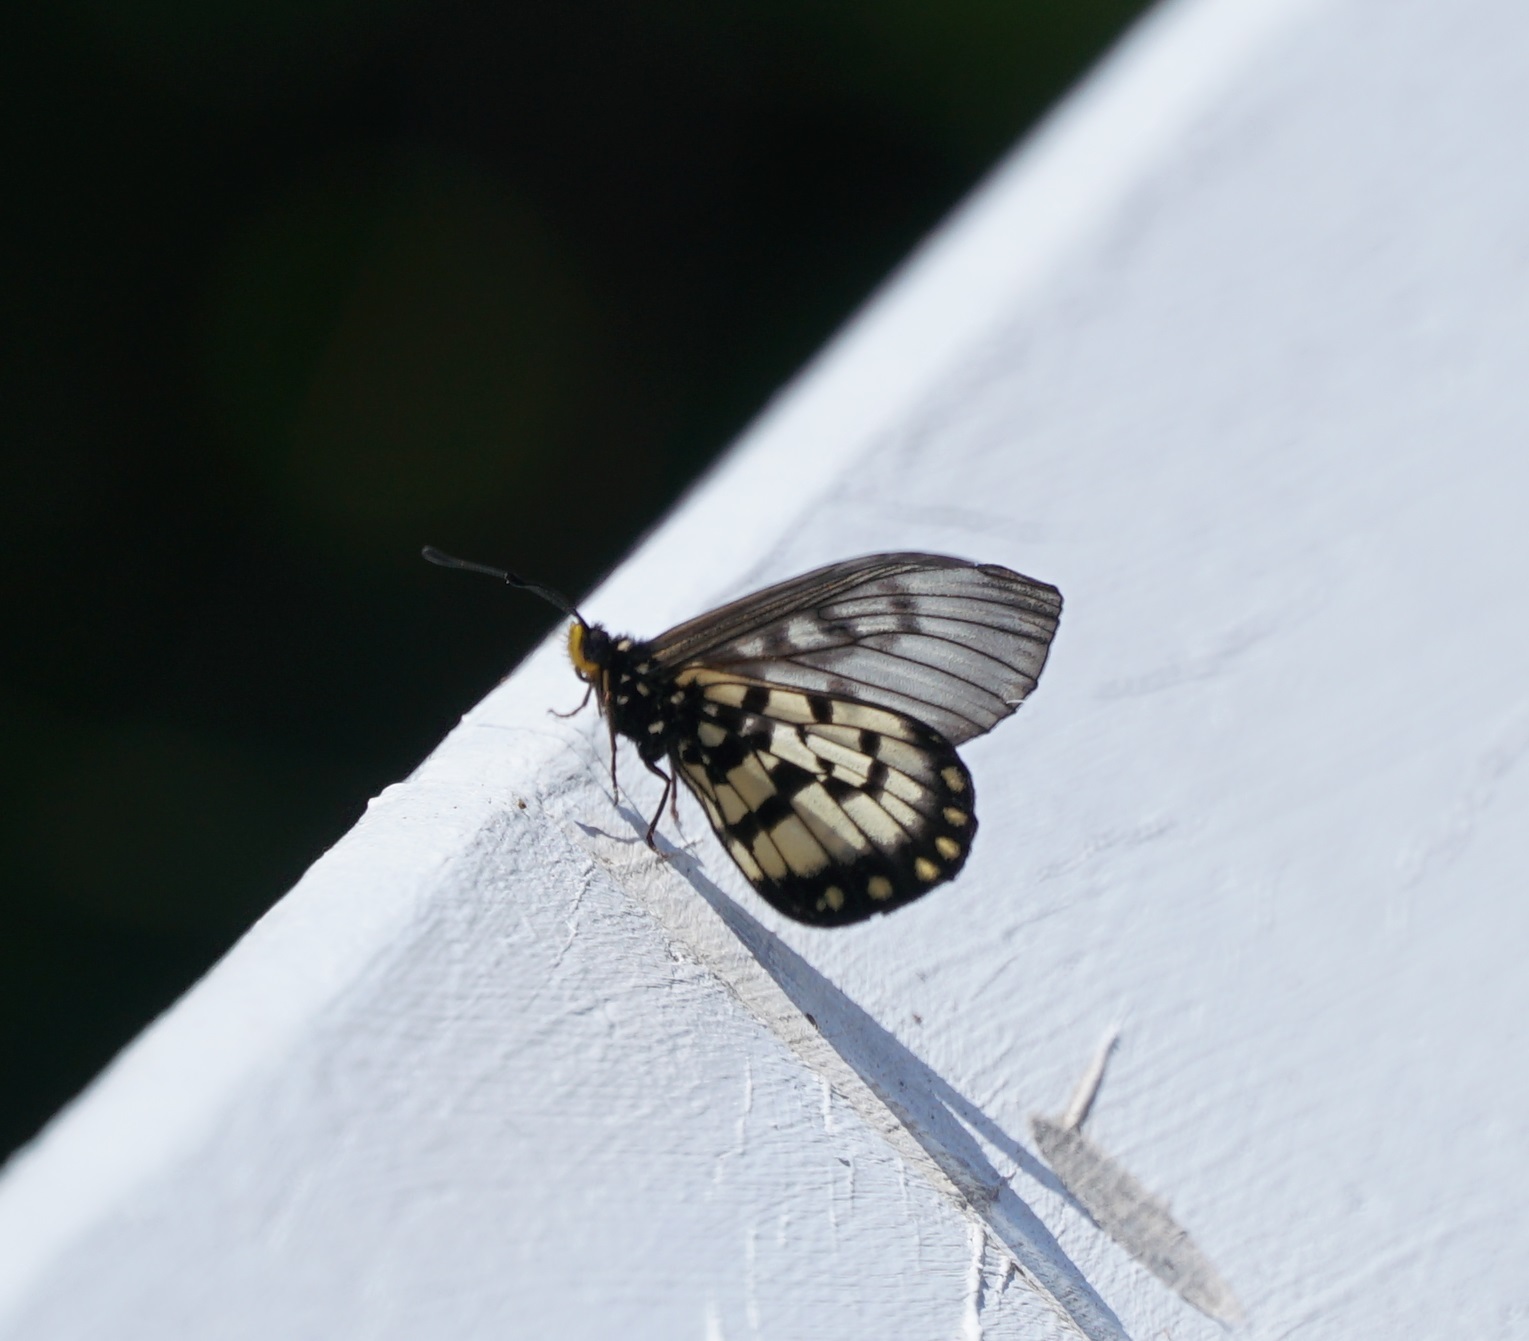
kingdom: Animalia
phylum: Arthropoda
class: Insecta
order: Lepidoptera
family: Nymphalidae
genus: Acraea
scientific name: Acraea andromacha
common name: Glasswing
